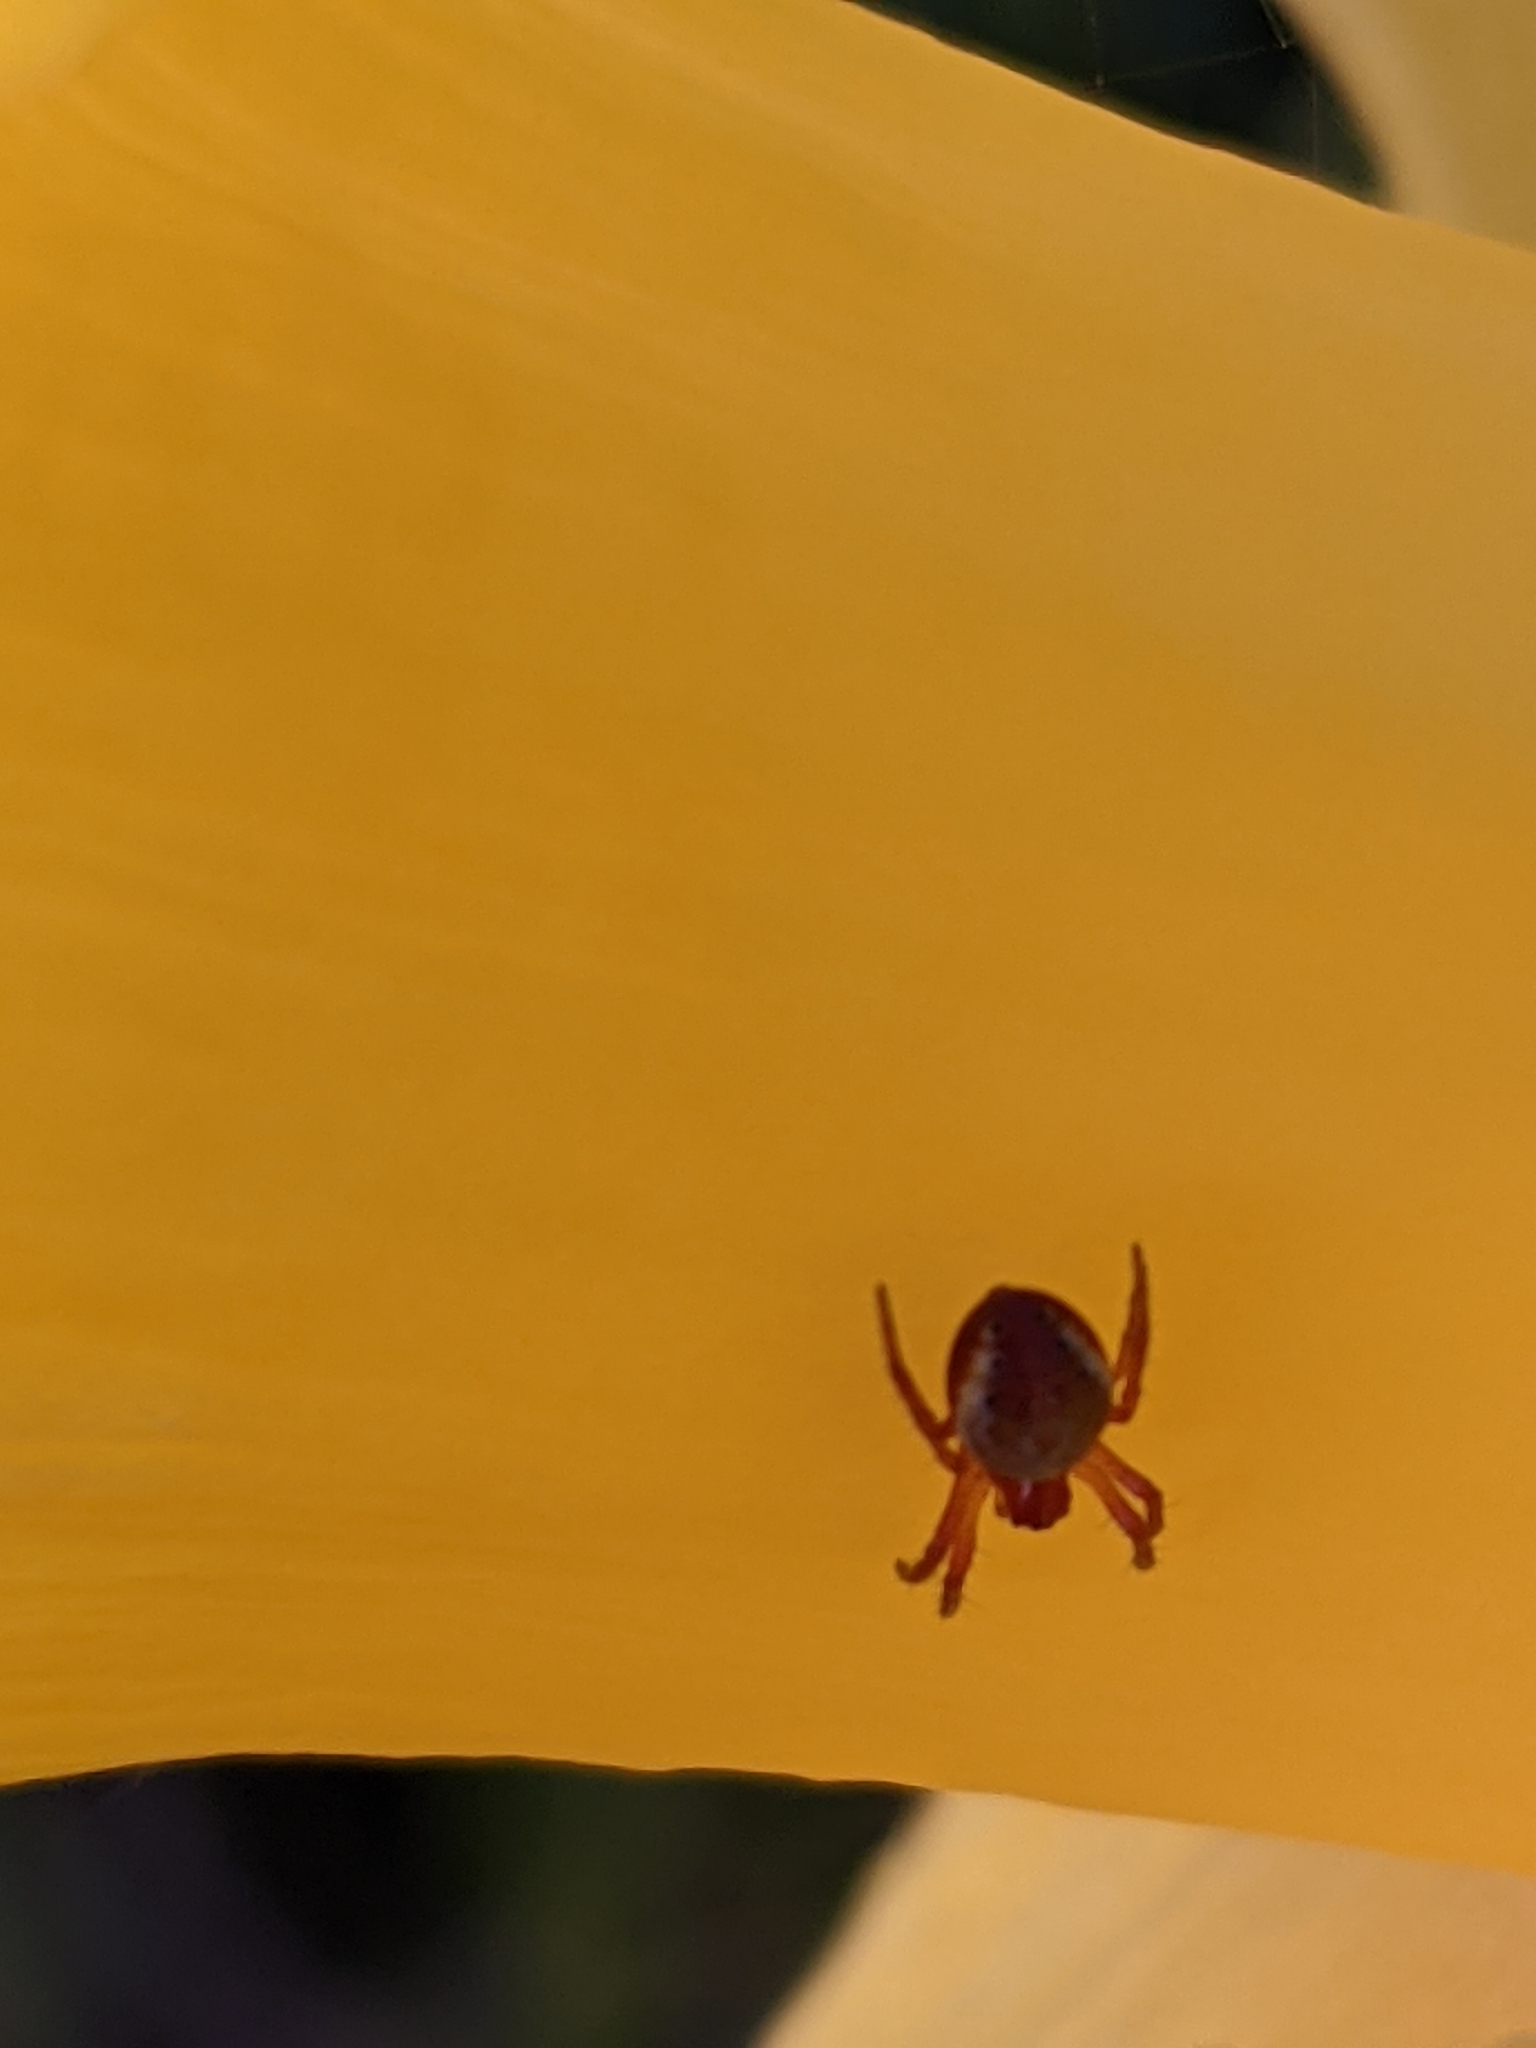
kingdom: Animalia
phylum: Arthropoda
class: Arachnida
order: Araneae
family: Araneidae
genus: Araniella
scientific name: Araniella displicata
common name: Sixspotted orb weaver
